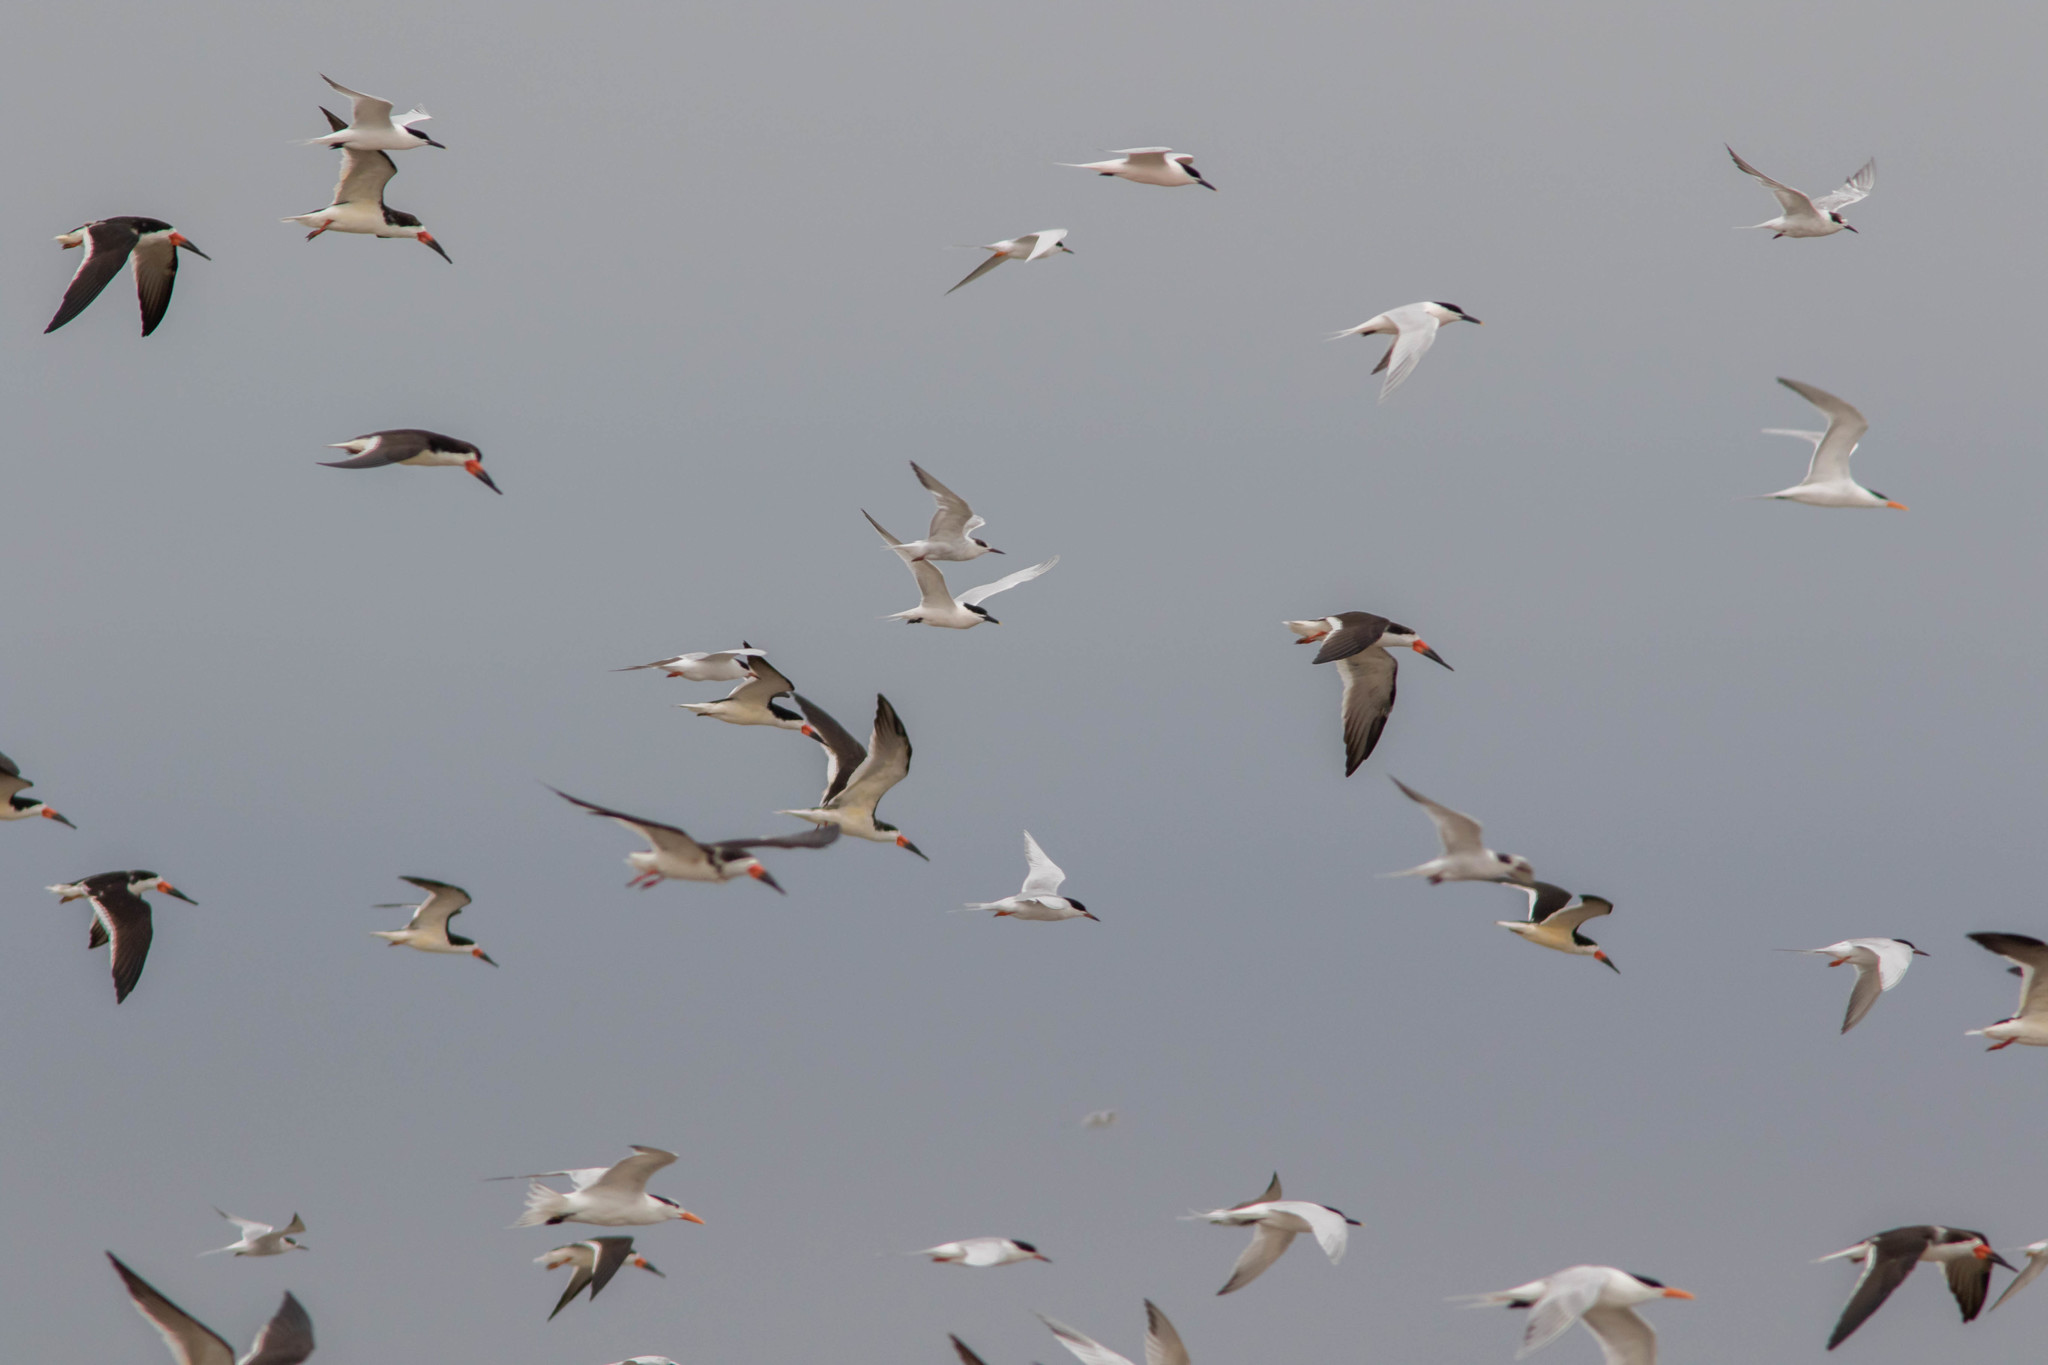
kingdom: Animalia
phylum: Chordata
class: Aves
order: Charadriiformes
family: Laridae
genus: Rynchops
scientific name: Rynchops niger
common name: Black skimmer
